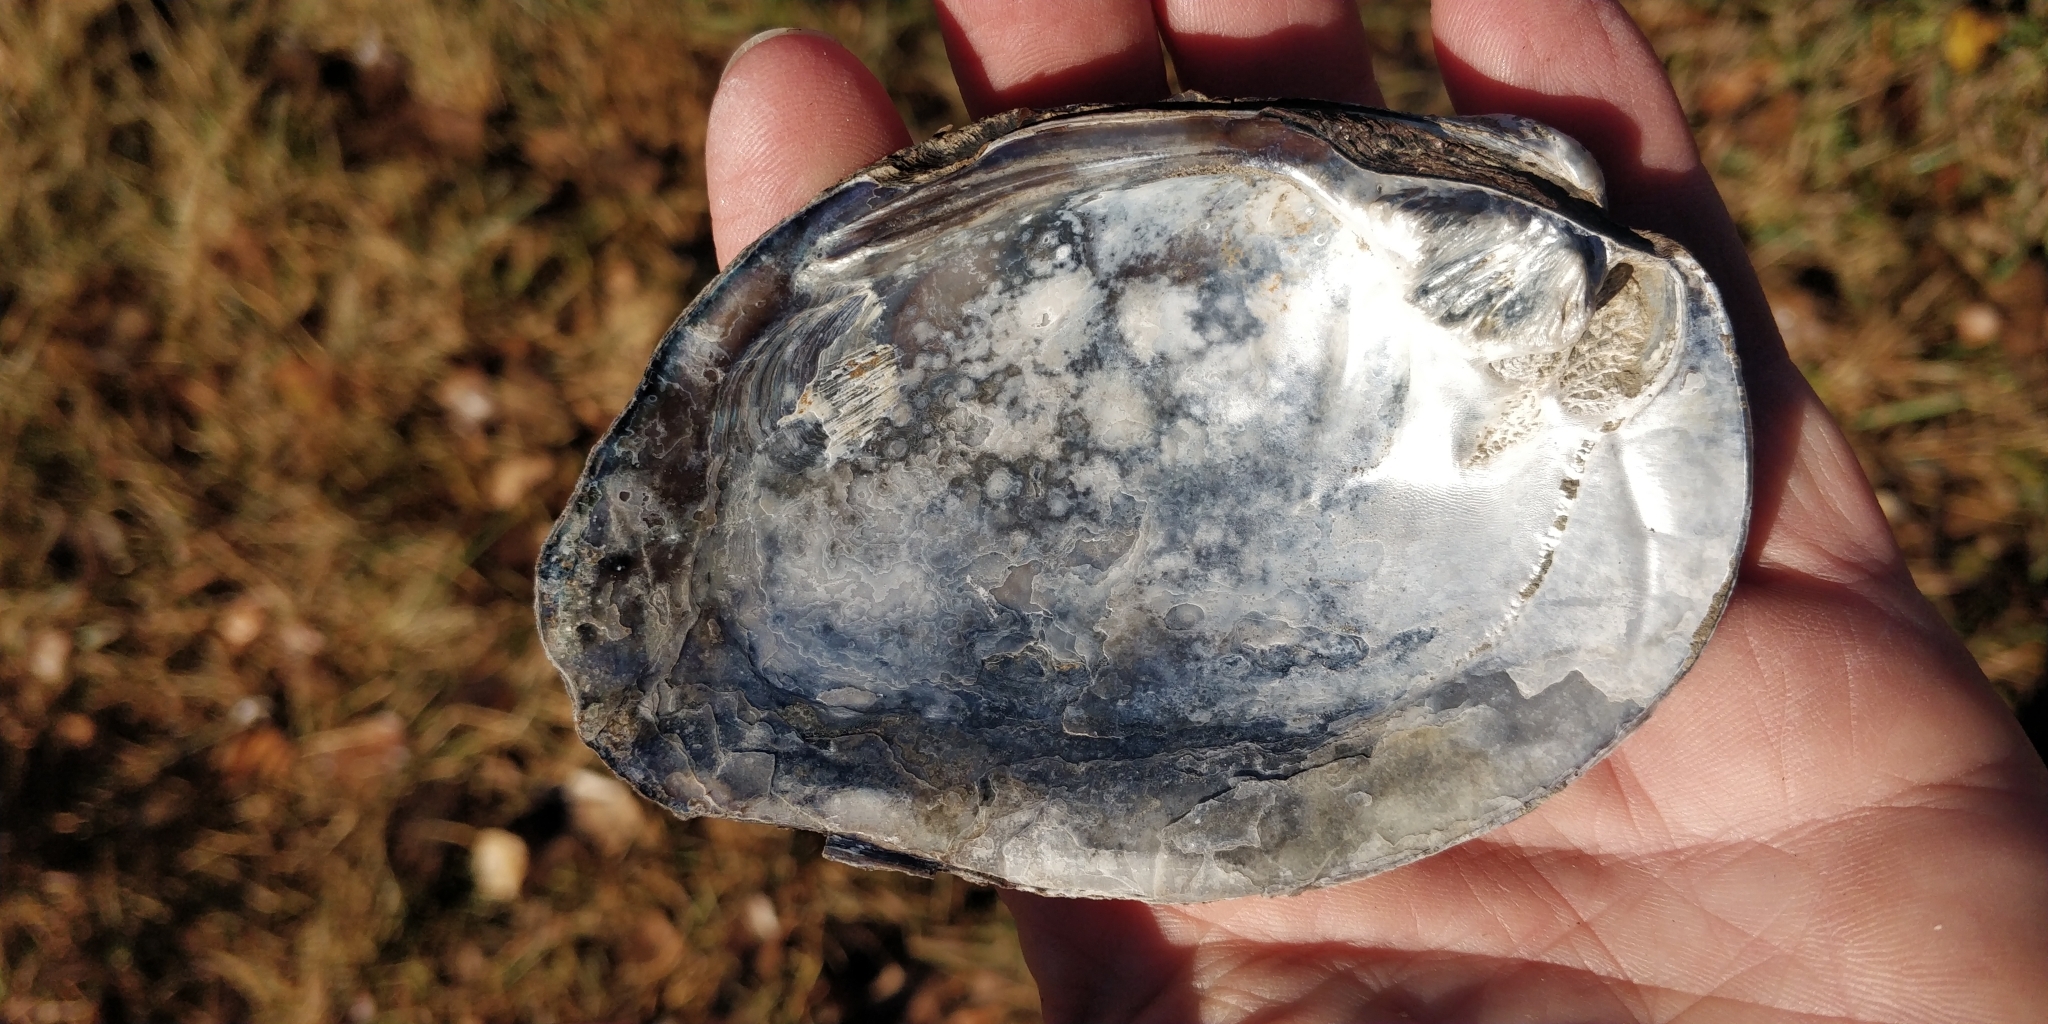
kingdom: Animalia
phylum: Mollusca
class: Bivalvia
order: Unionida
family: Unionidae
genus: Amblema
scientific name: Amblema plicata
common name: Threeridge
